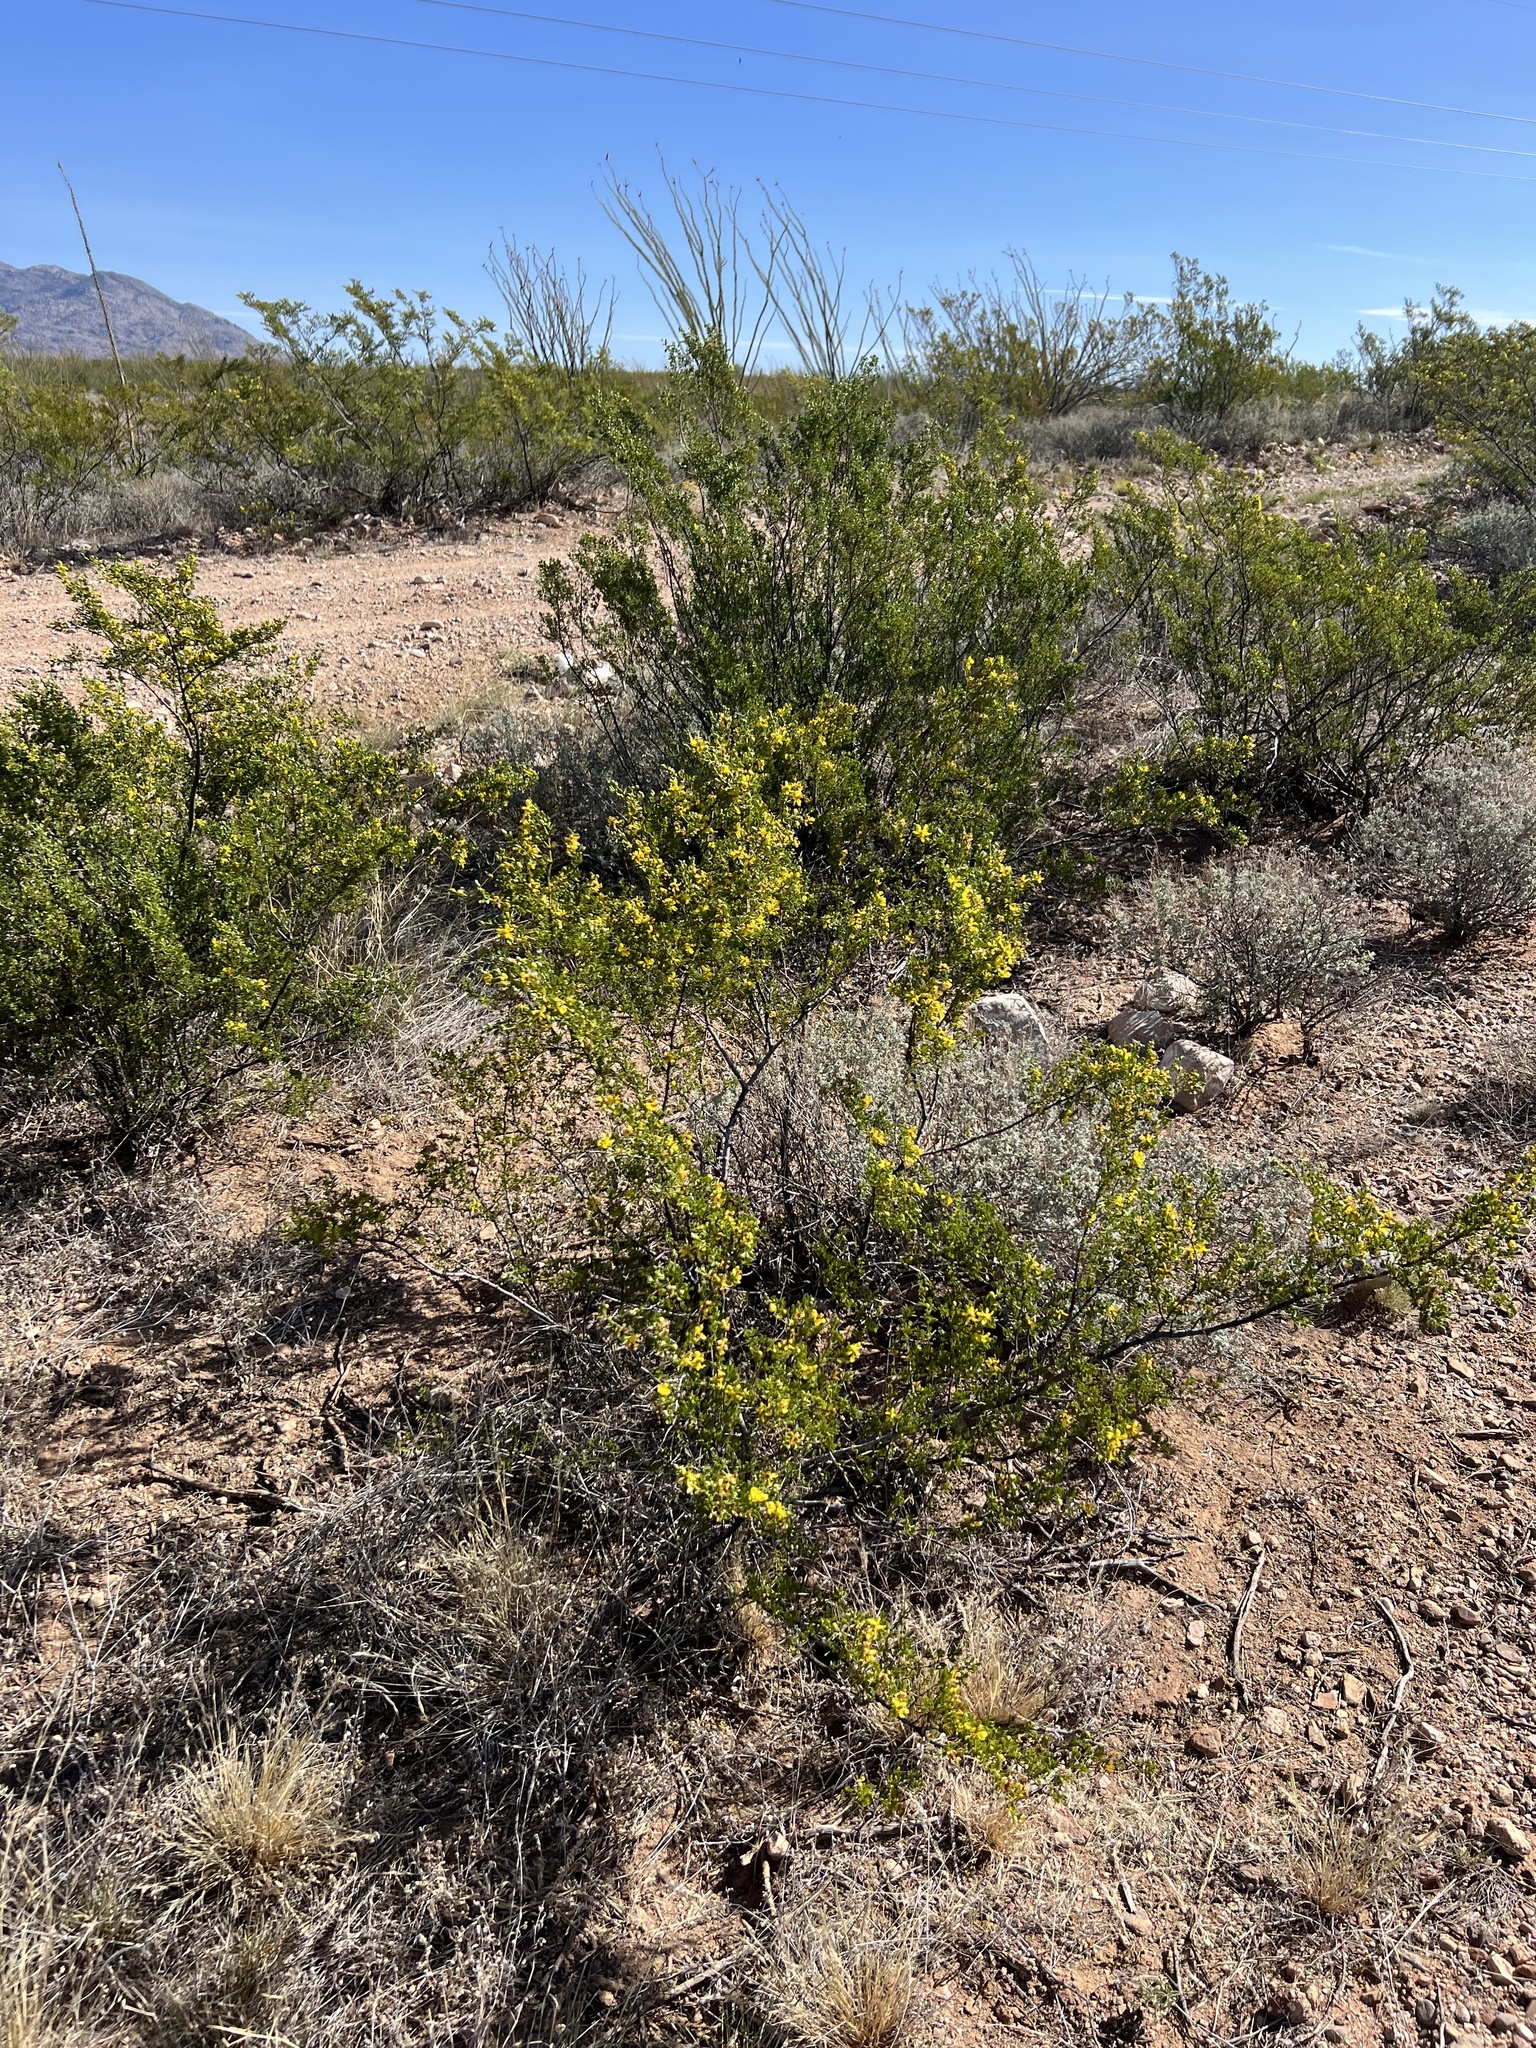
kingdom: Plantae
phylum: Tracheophyta
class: Magnoliopsida
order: Zygophyllales
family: Zygophyllaceae
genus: Larrea
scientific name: Larrea tridentata
